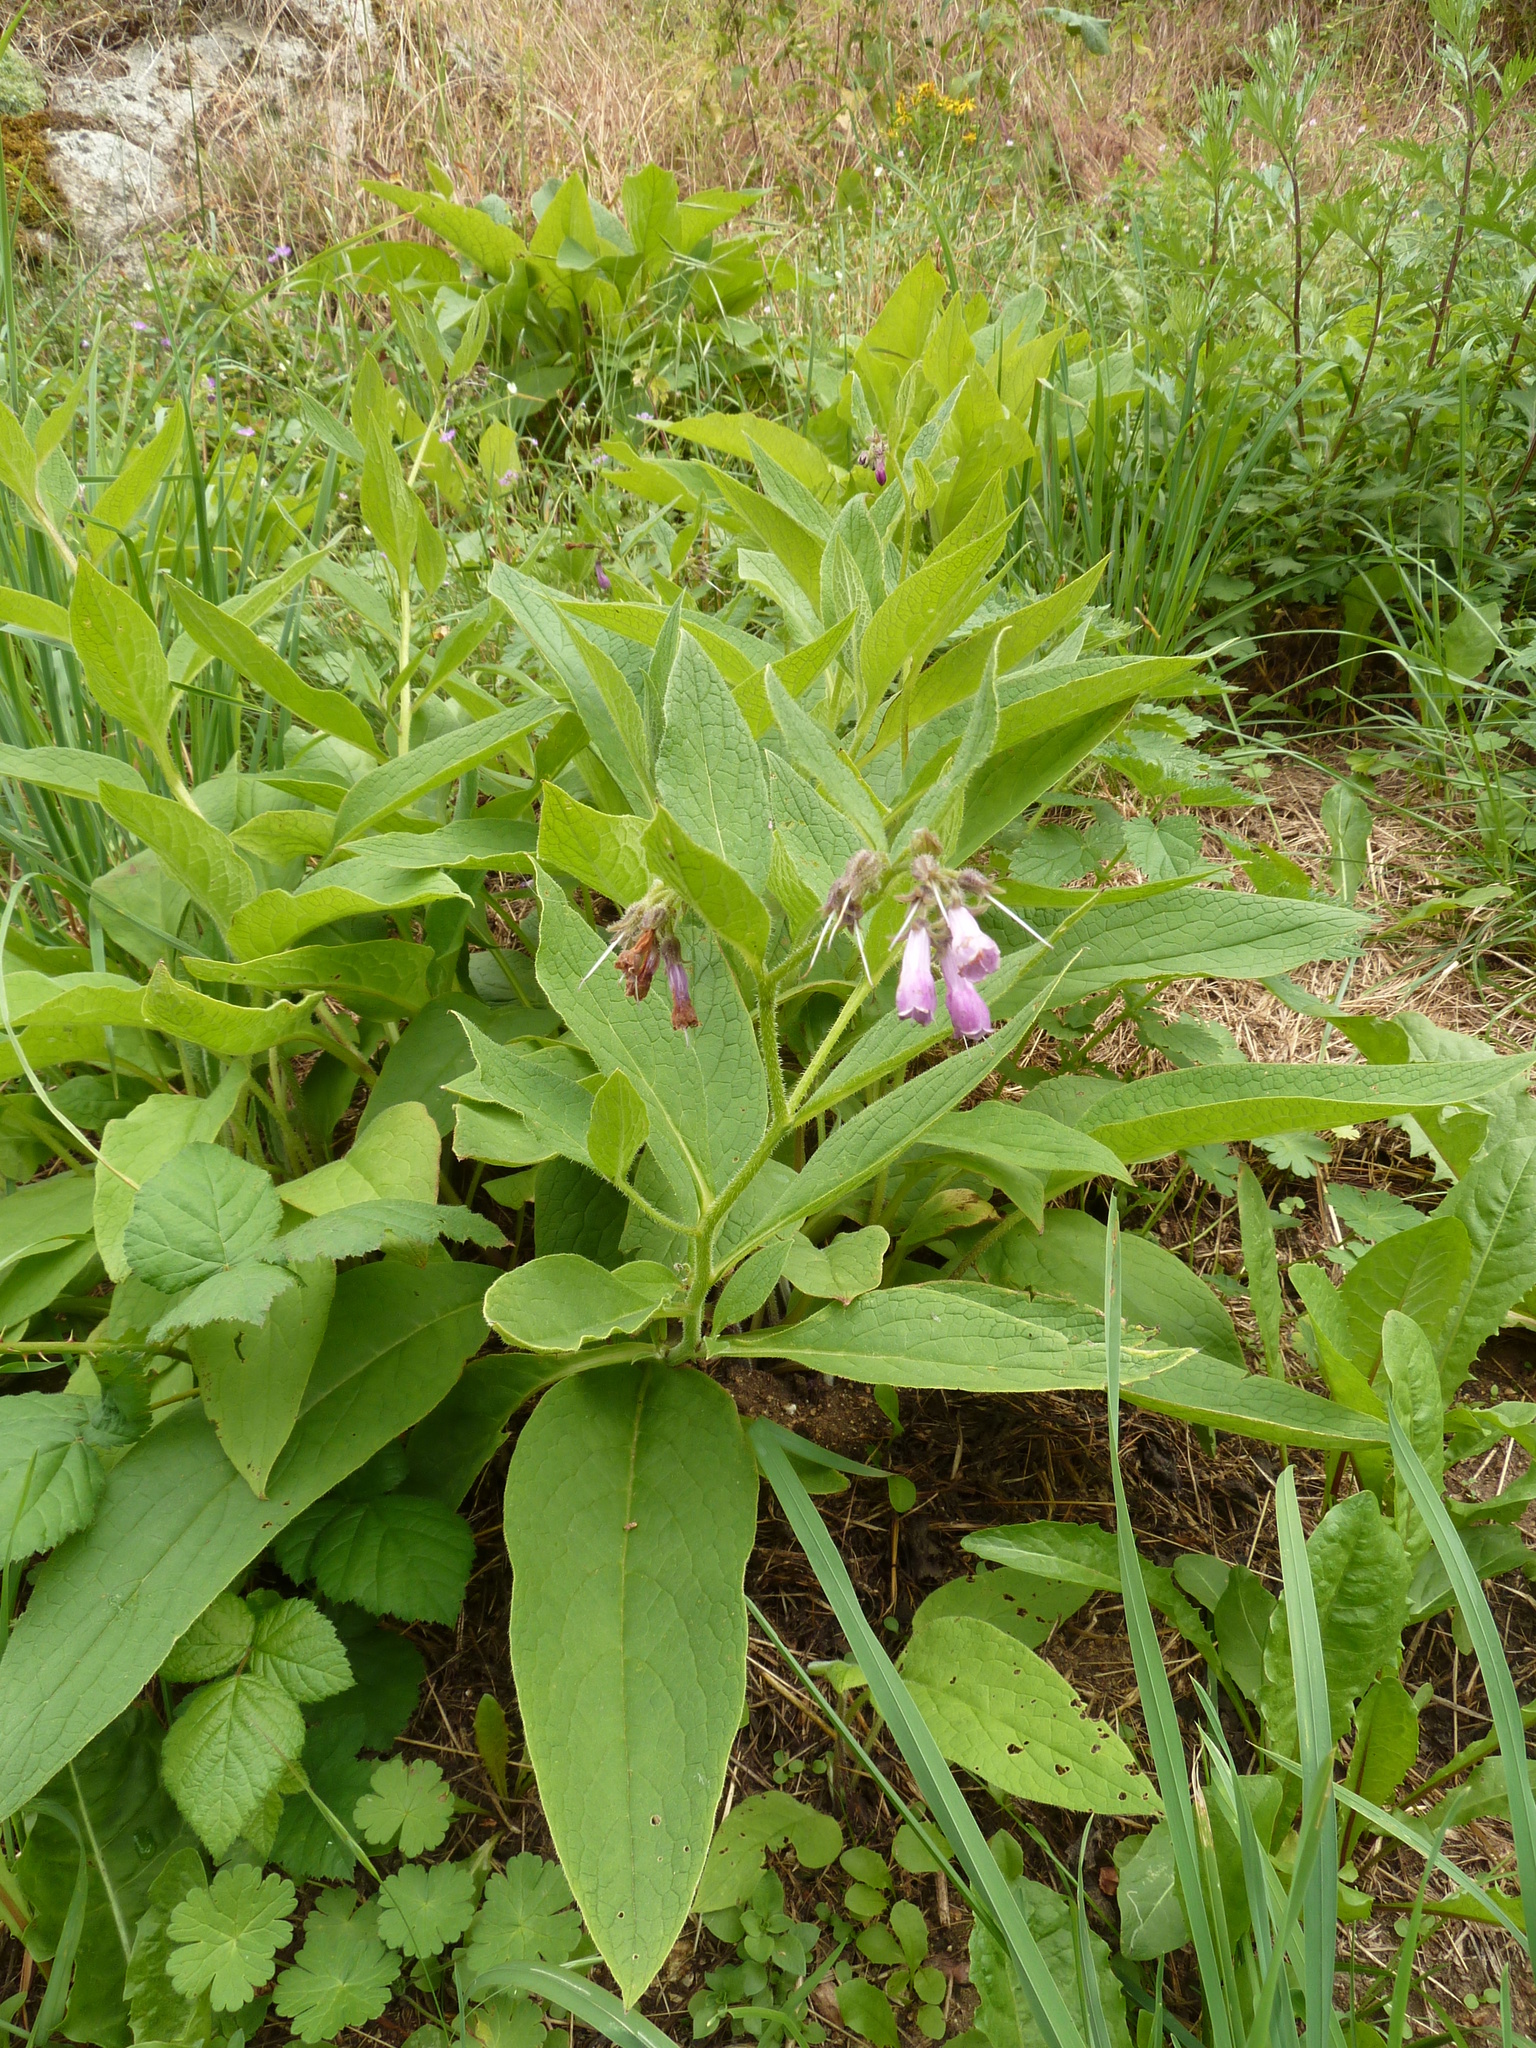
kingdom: Plantae
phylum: Tracheophyta
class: Magnoliopsida
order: Boraginales
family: Boraginaceae
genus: Symphytum
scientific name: Symphytum officinale
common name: Common comfrey
